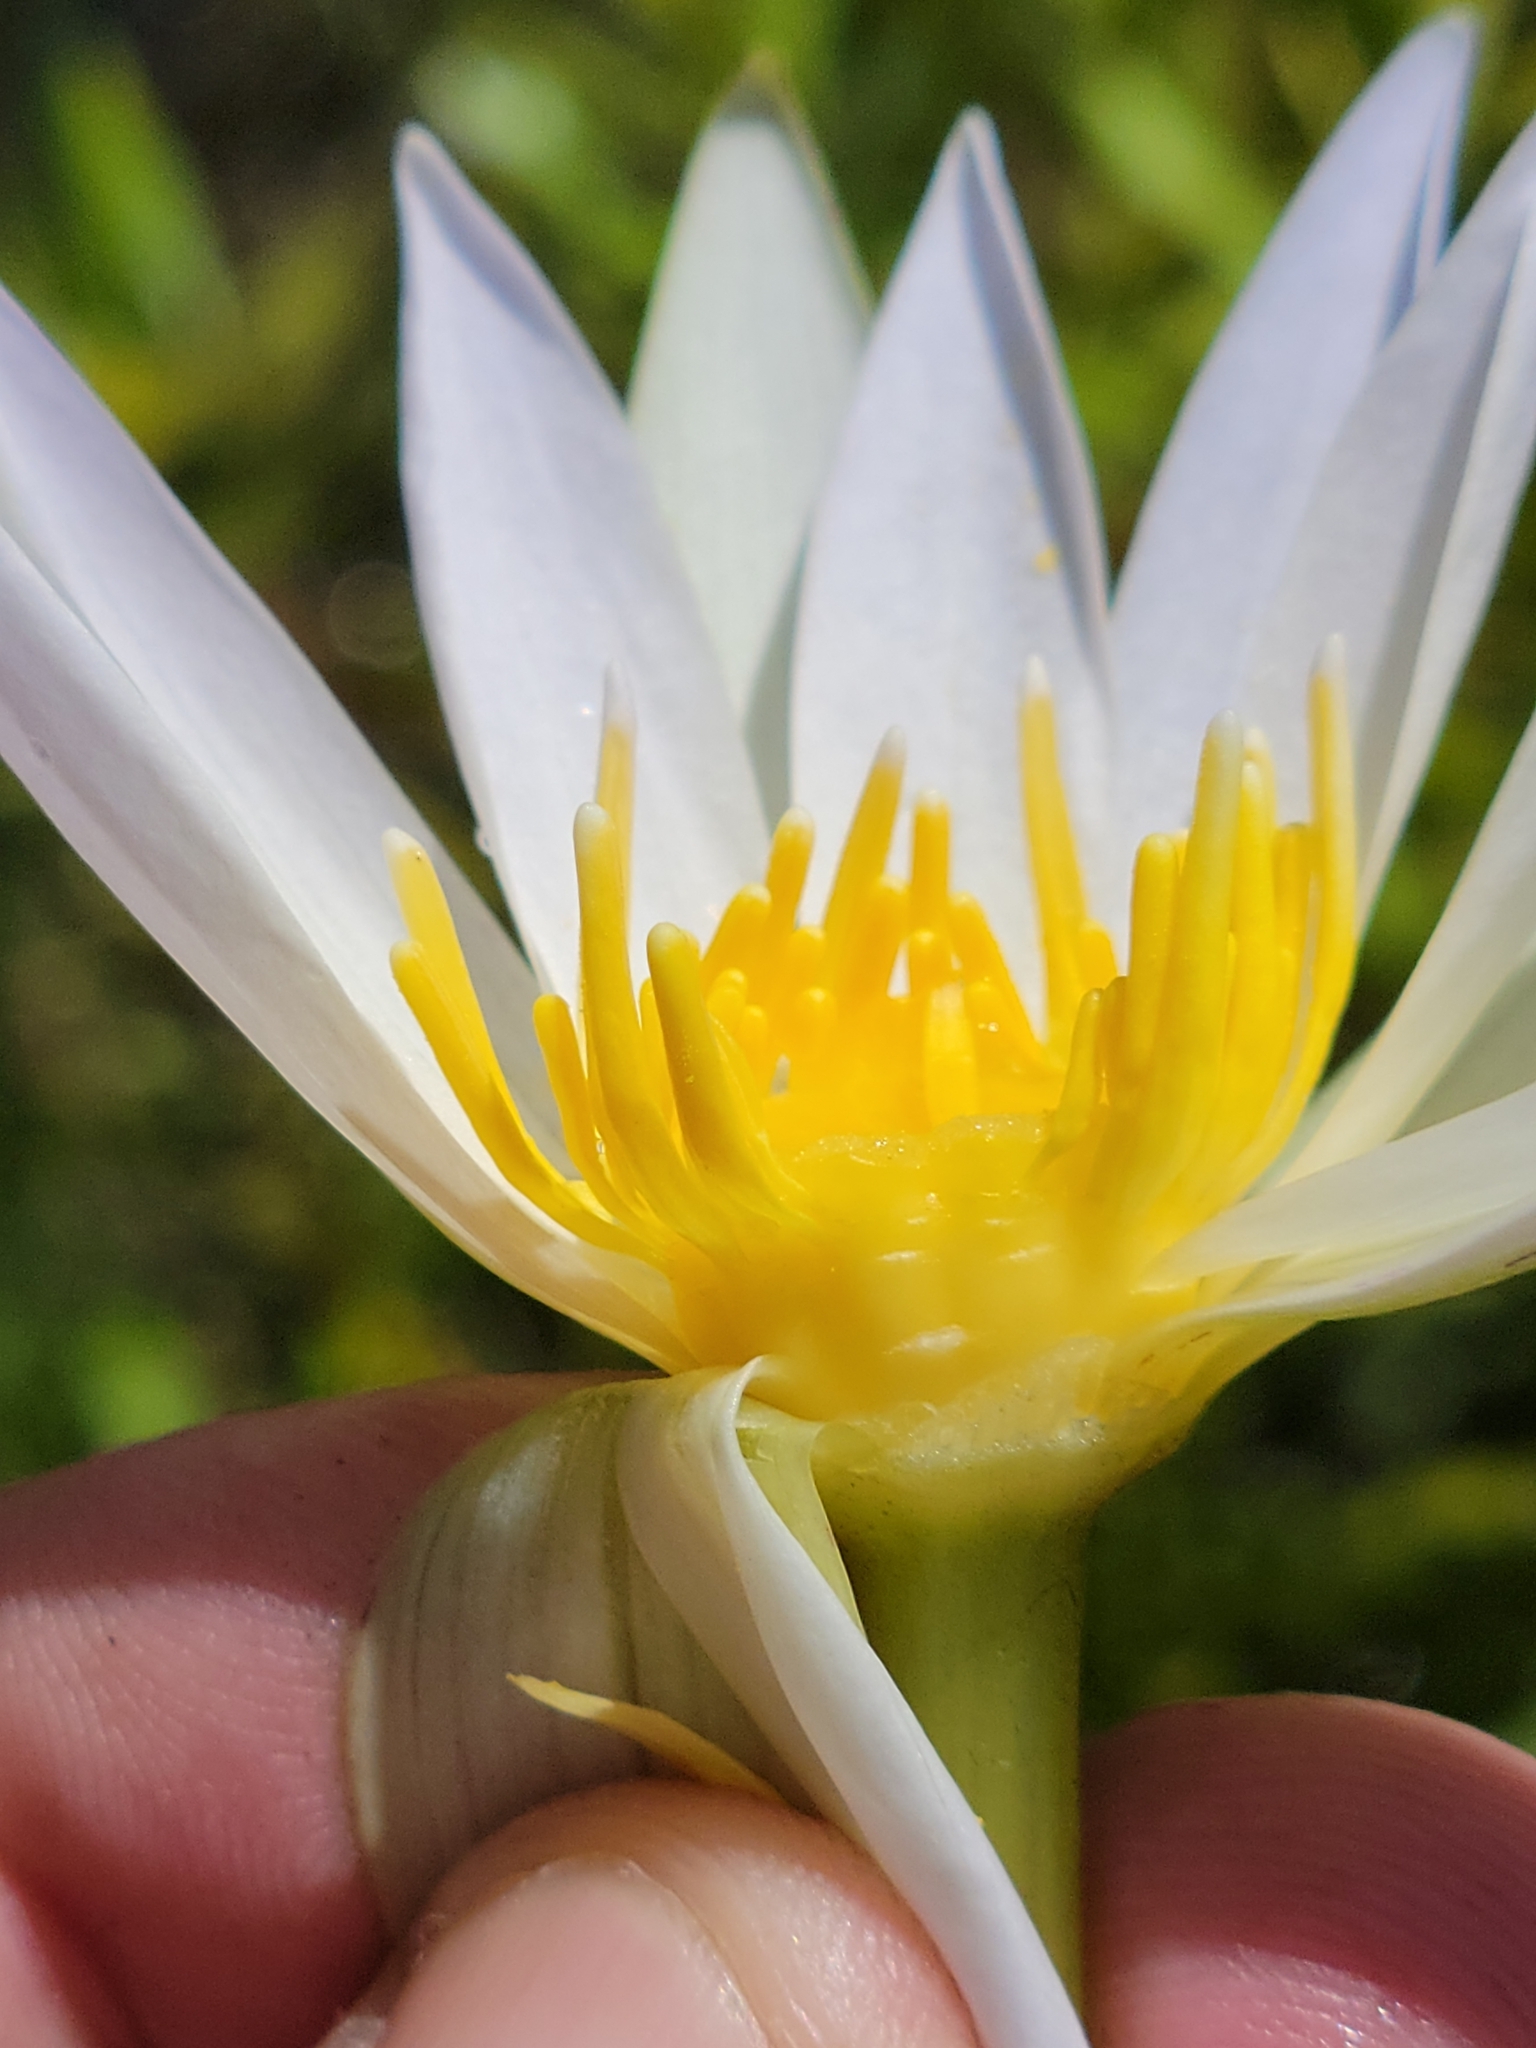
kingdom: Plantae
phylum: Tracheophyta
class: Magnoliopsida
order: Nymphaeales
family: Nymphaeaceae
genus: Nymphaea
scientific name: Nymphaea elegans
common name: Blue water-lily
